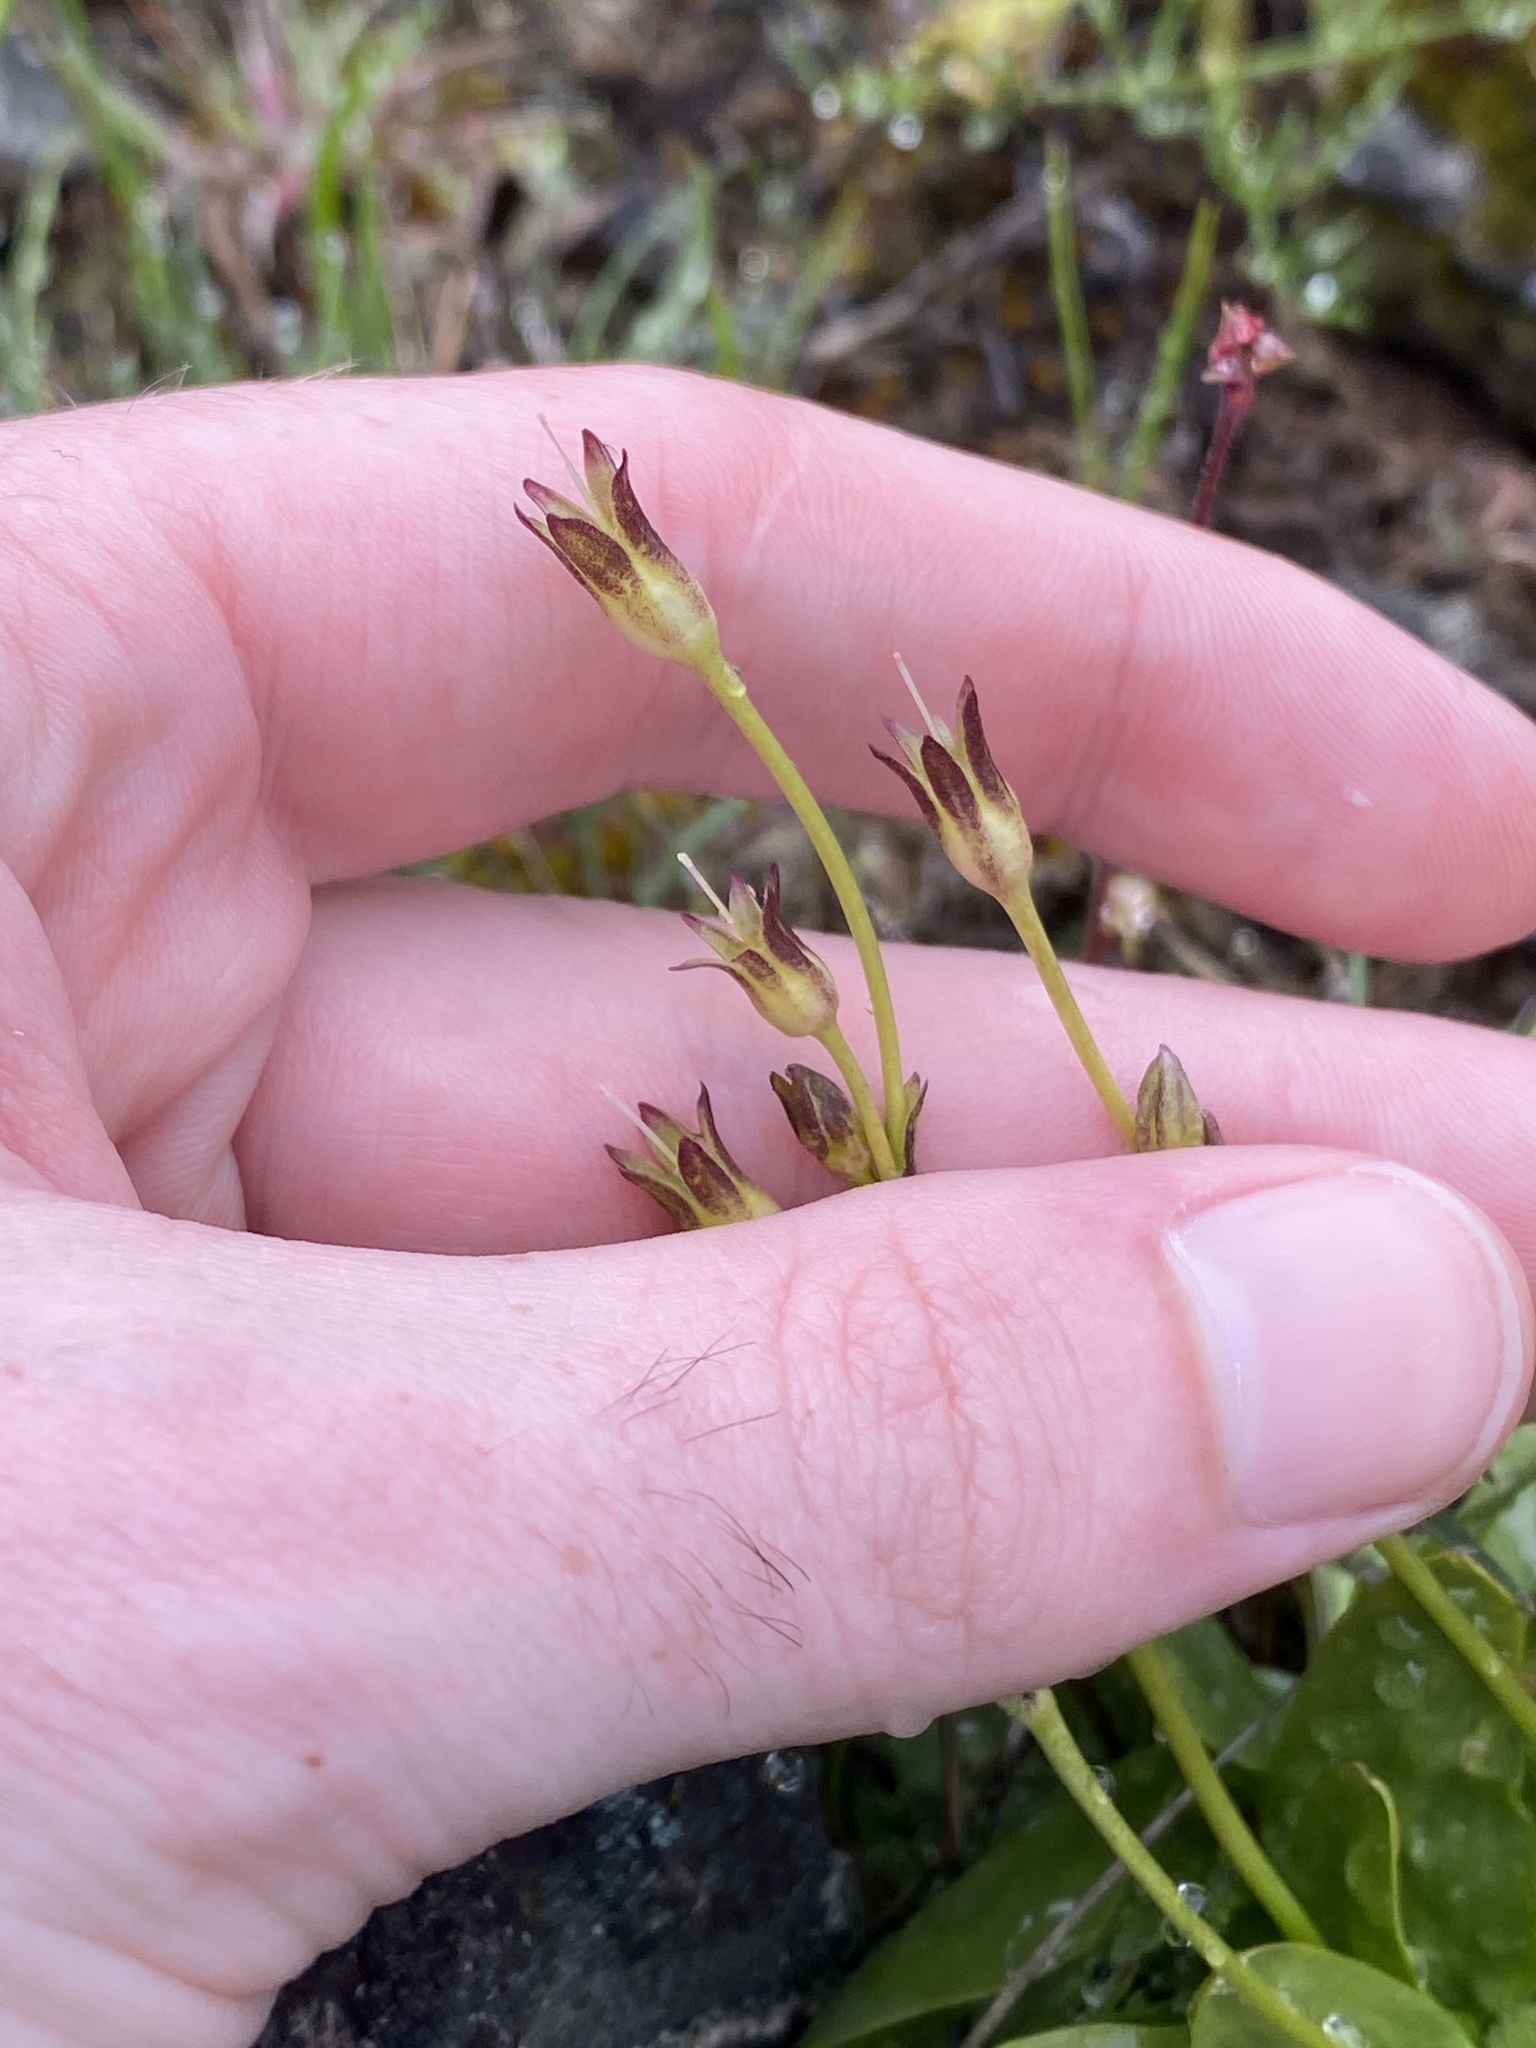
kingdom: Plantae
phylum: Tracheophyta
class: Magnoliopsida
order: Ericales
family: Primulaceae
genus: Primula
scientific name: Primula cusickiana
